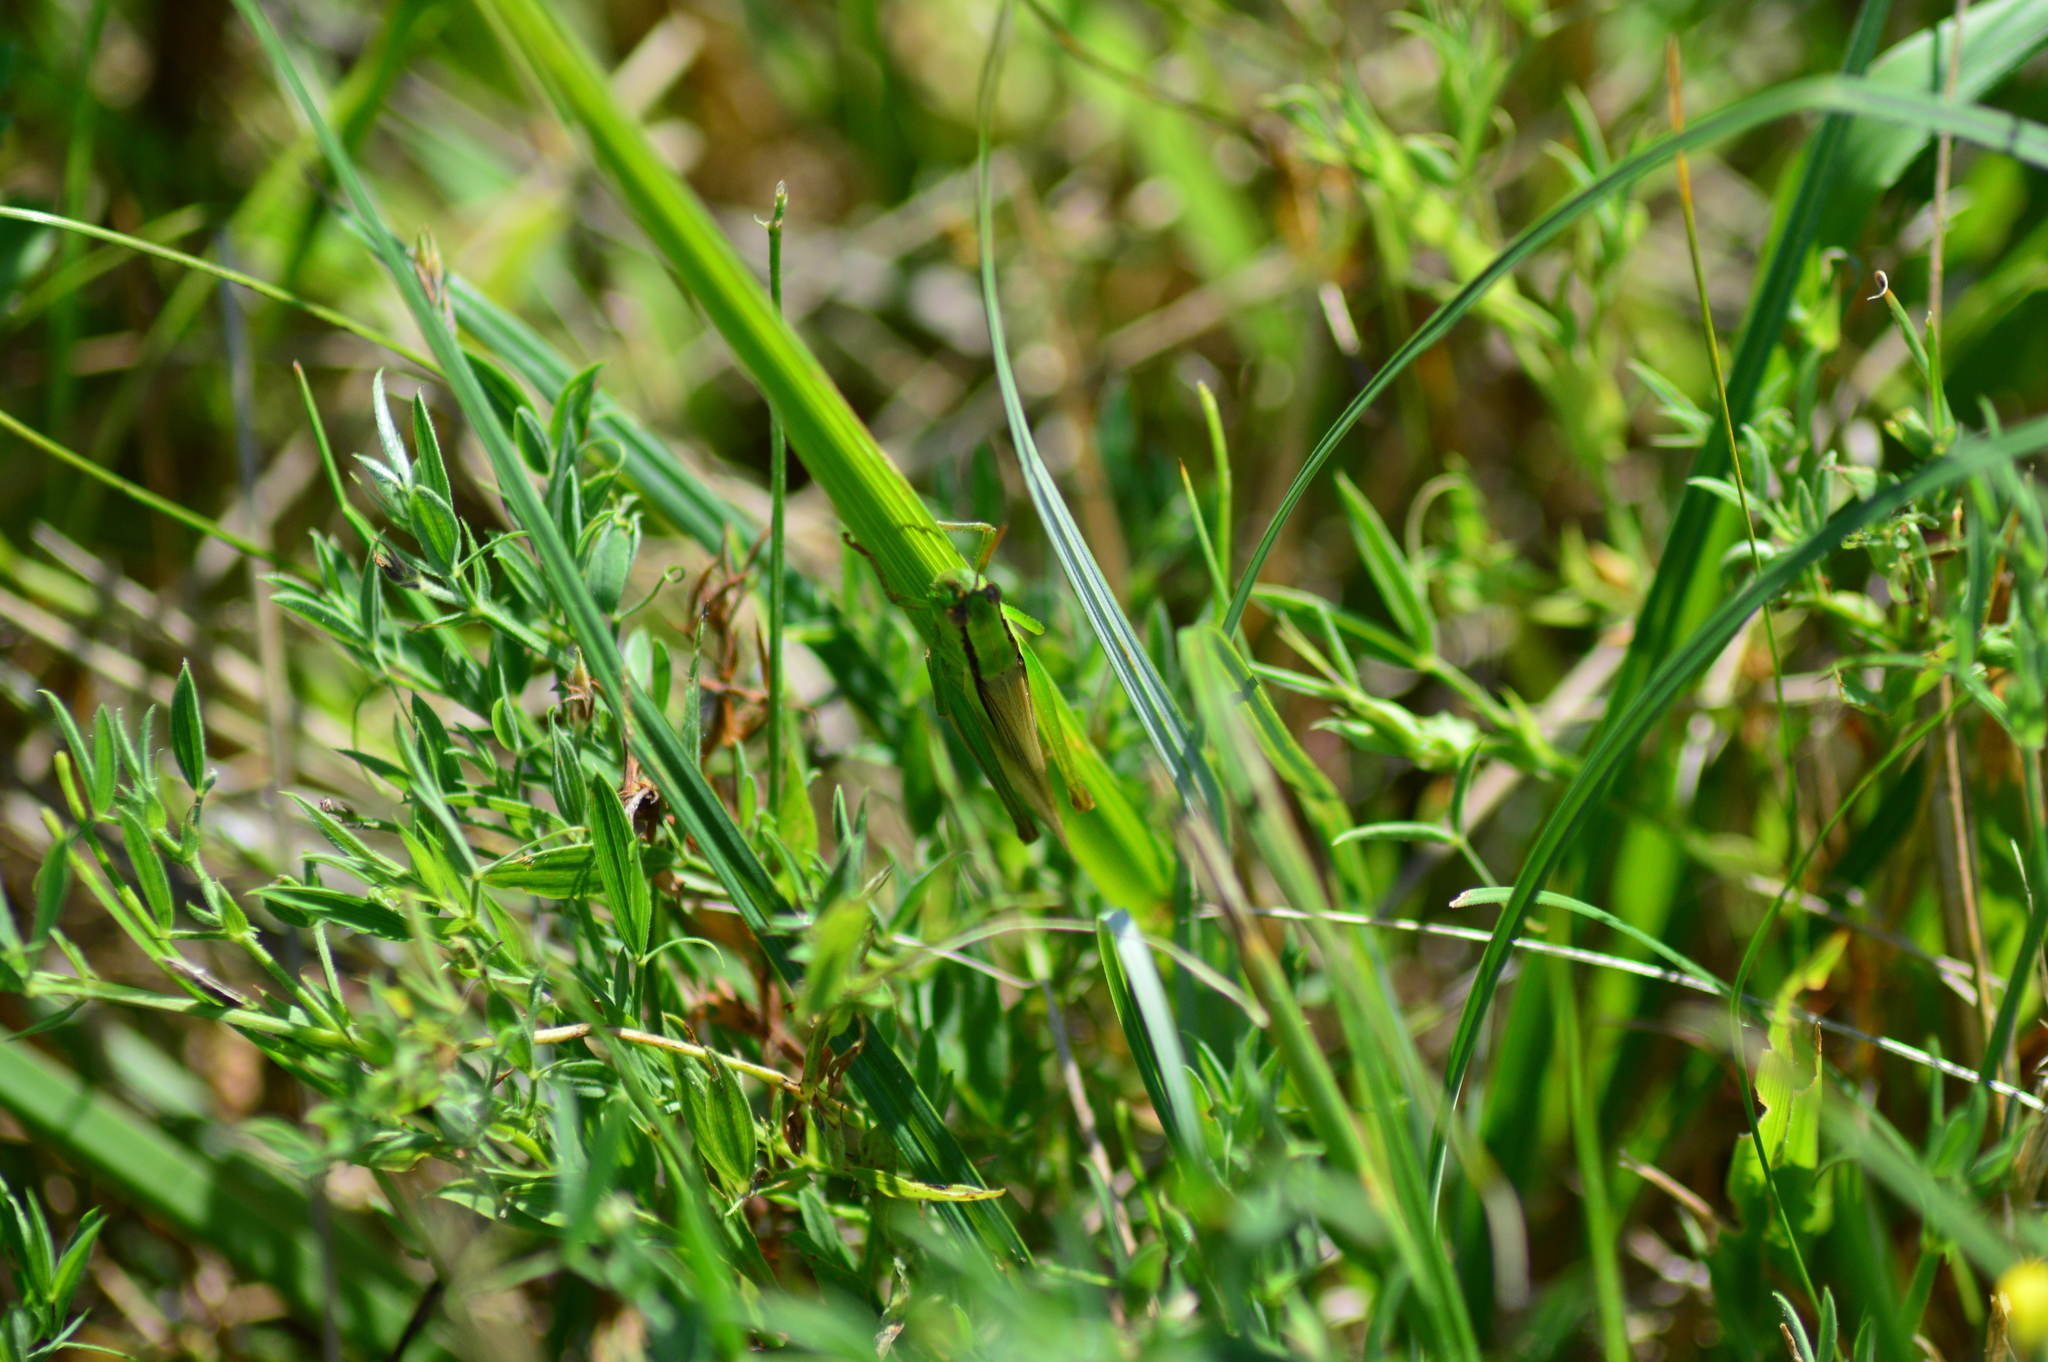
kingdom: Animalia
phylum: Arthropoda
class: Insecta
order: Orthoptera
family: Acrididae
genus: Mecostethus
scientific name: Mecostethus parapleurus
